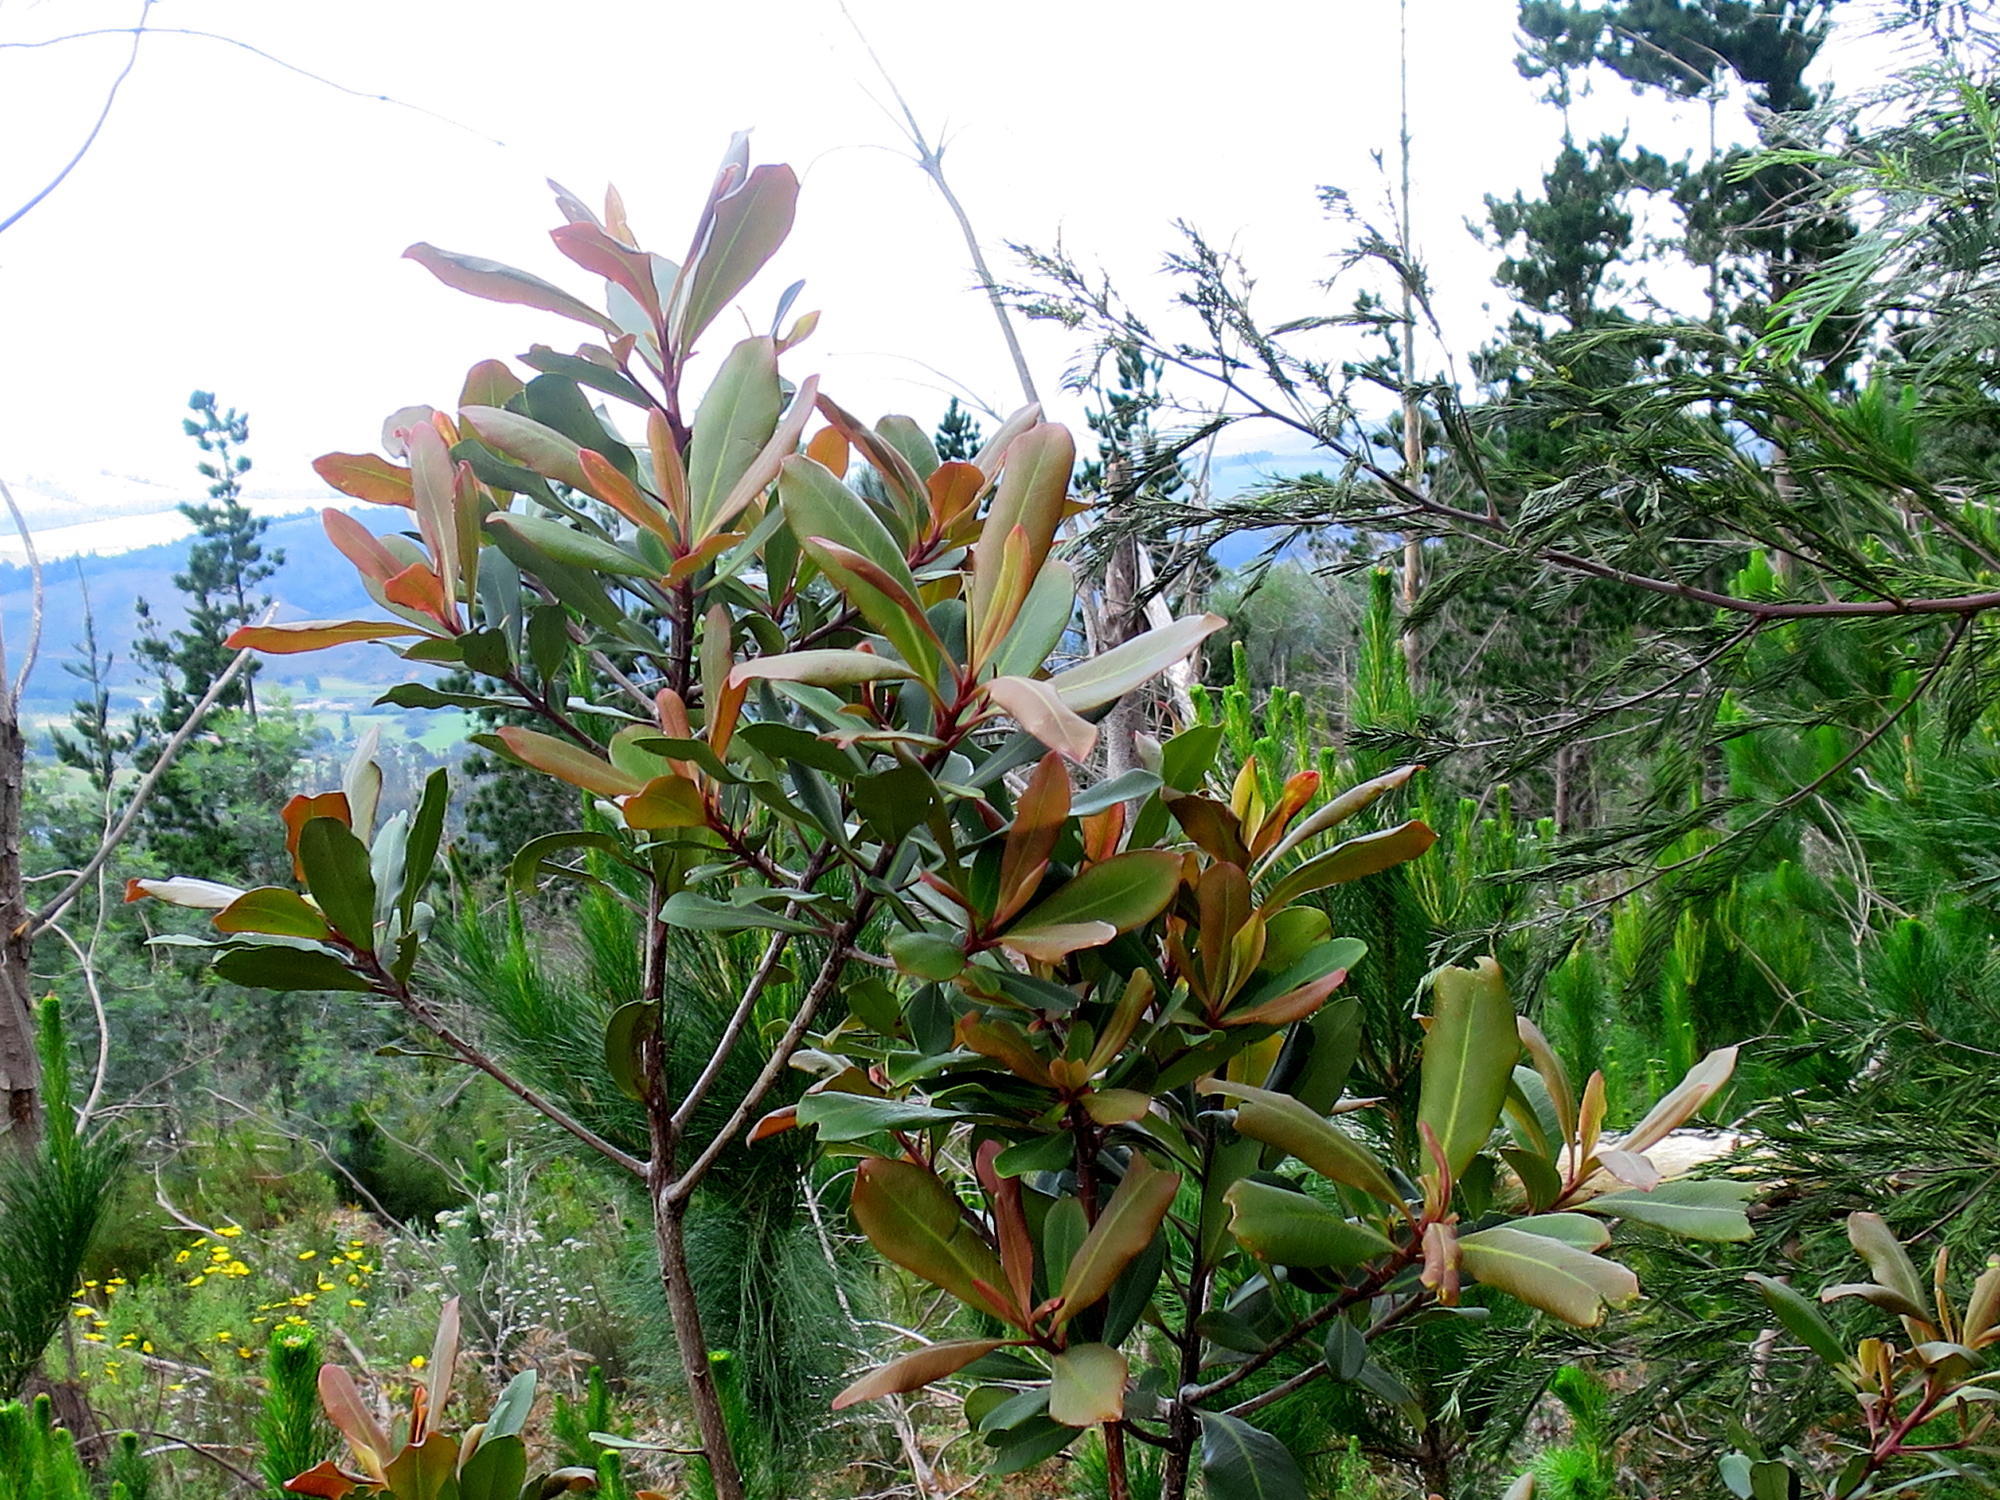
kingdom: Plantae
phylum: Tracheophyta
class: Magnoliopsida
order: Ericales
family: Primulaceae
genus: Myrsine
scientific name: Myrsine melanophloeos
